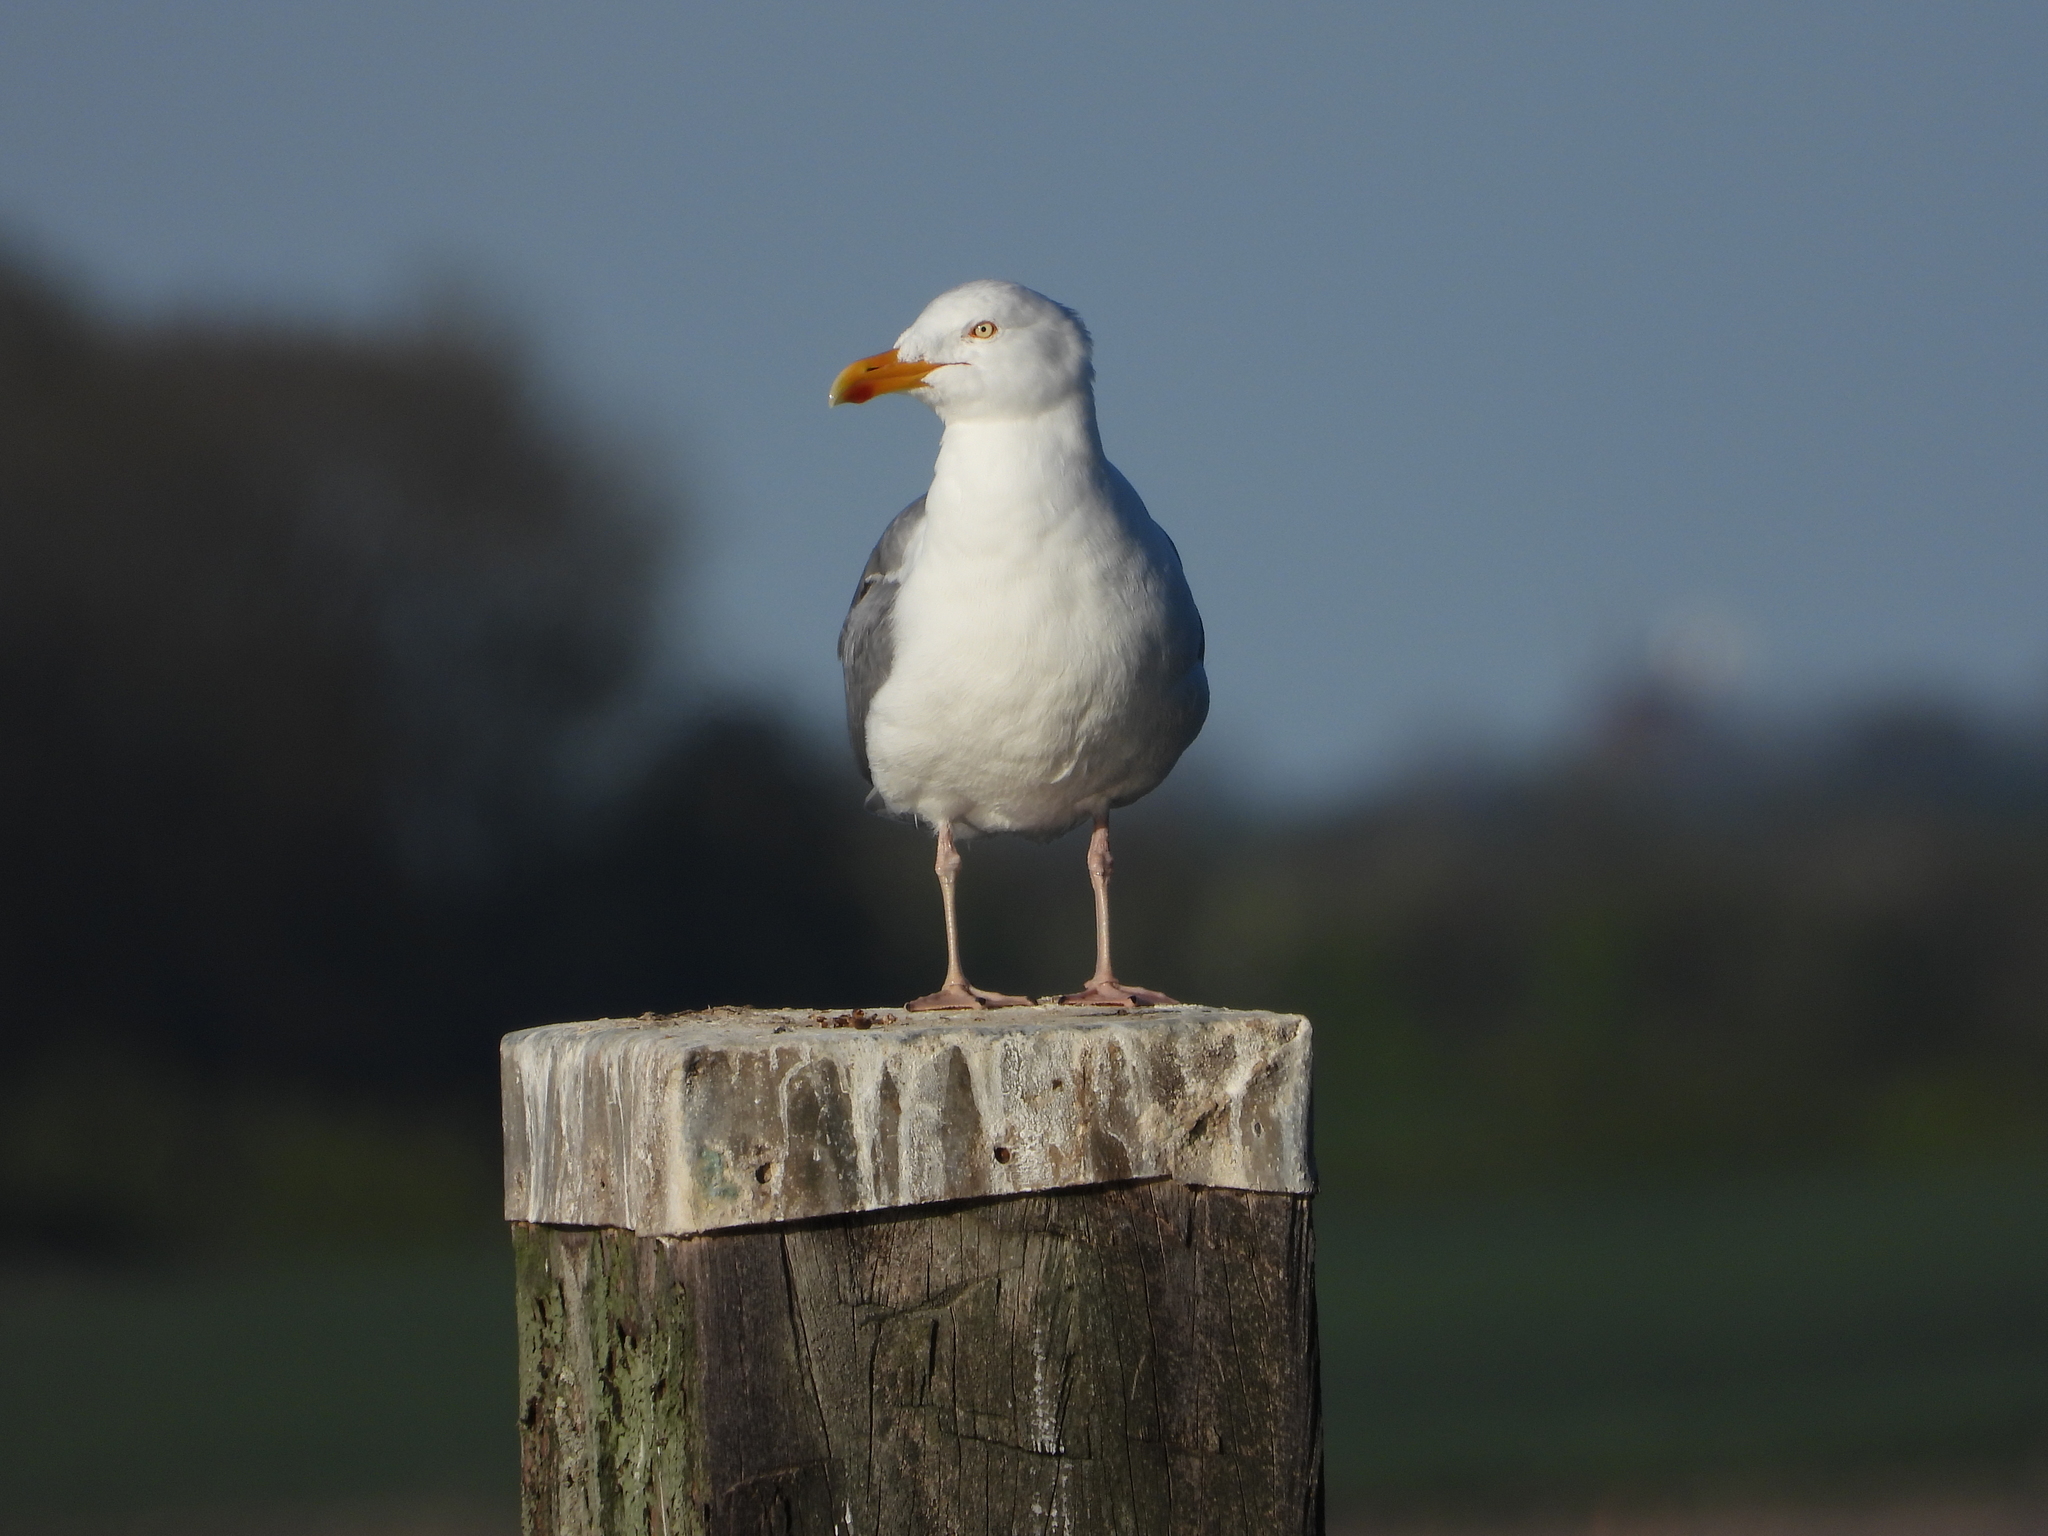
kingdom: Animalia
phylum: Chordata
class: Aves
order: Charadriiformes
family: Laridae
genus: Larus
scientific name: Larus argentatus
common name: Herring gull
